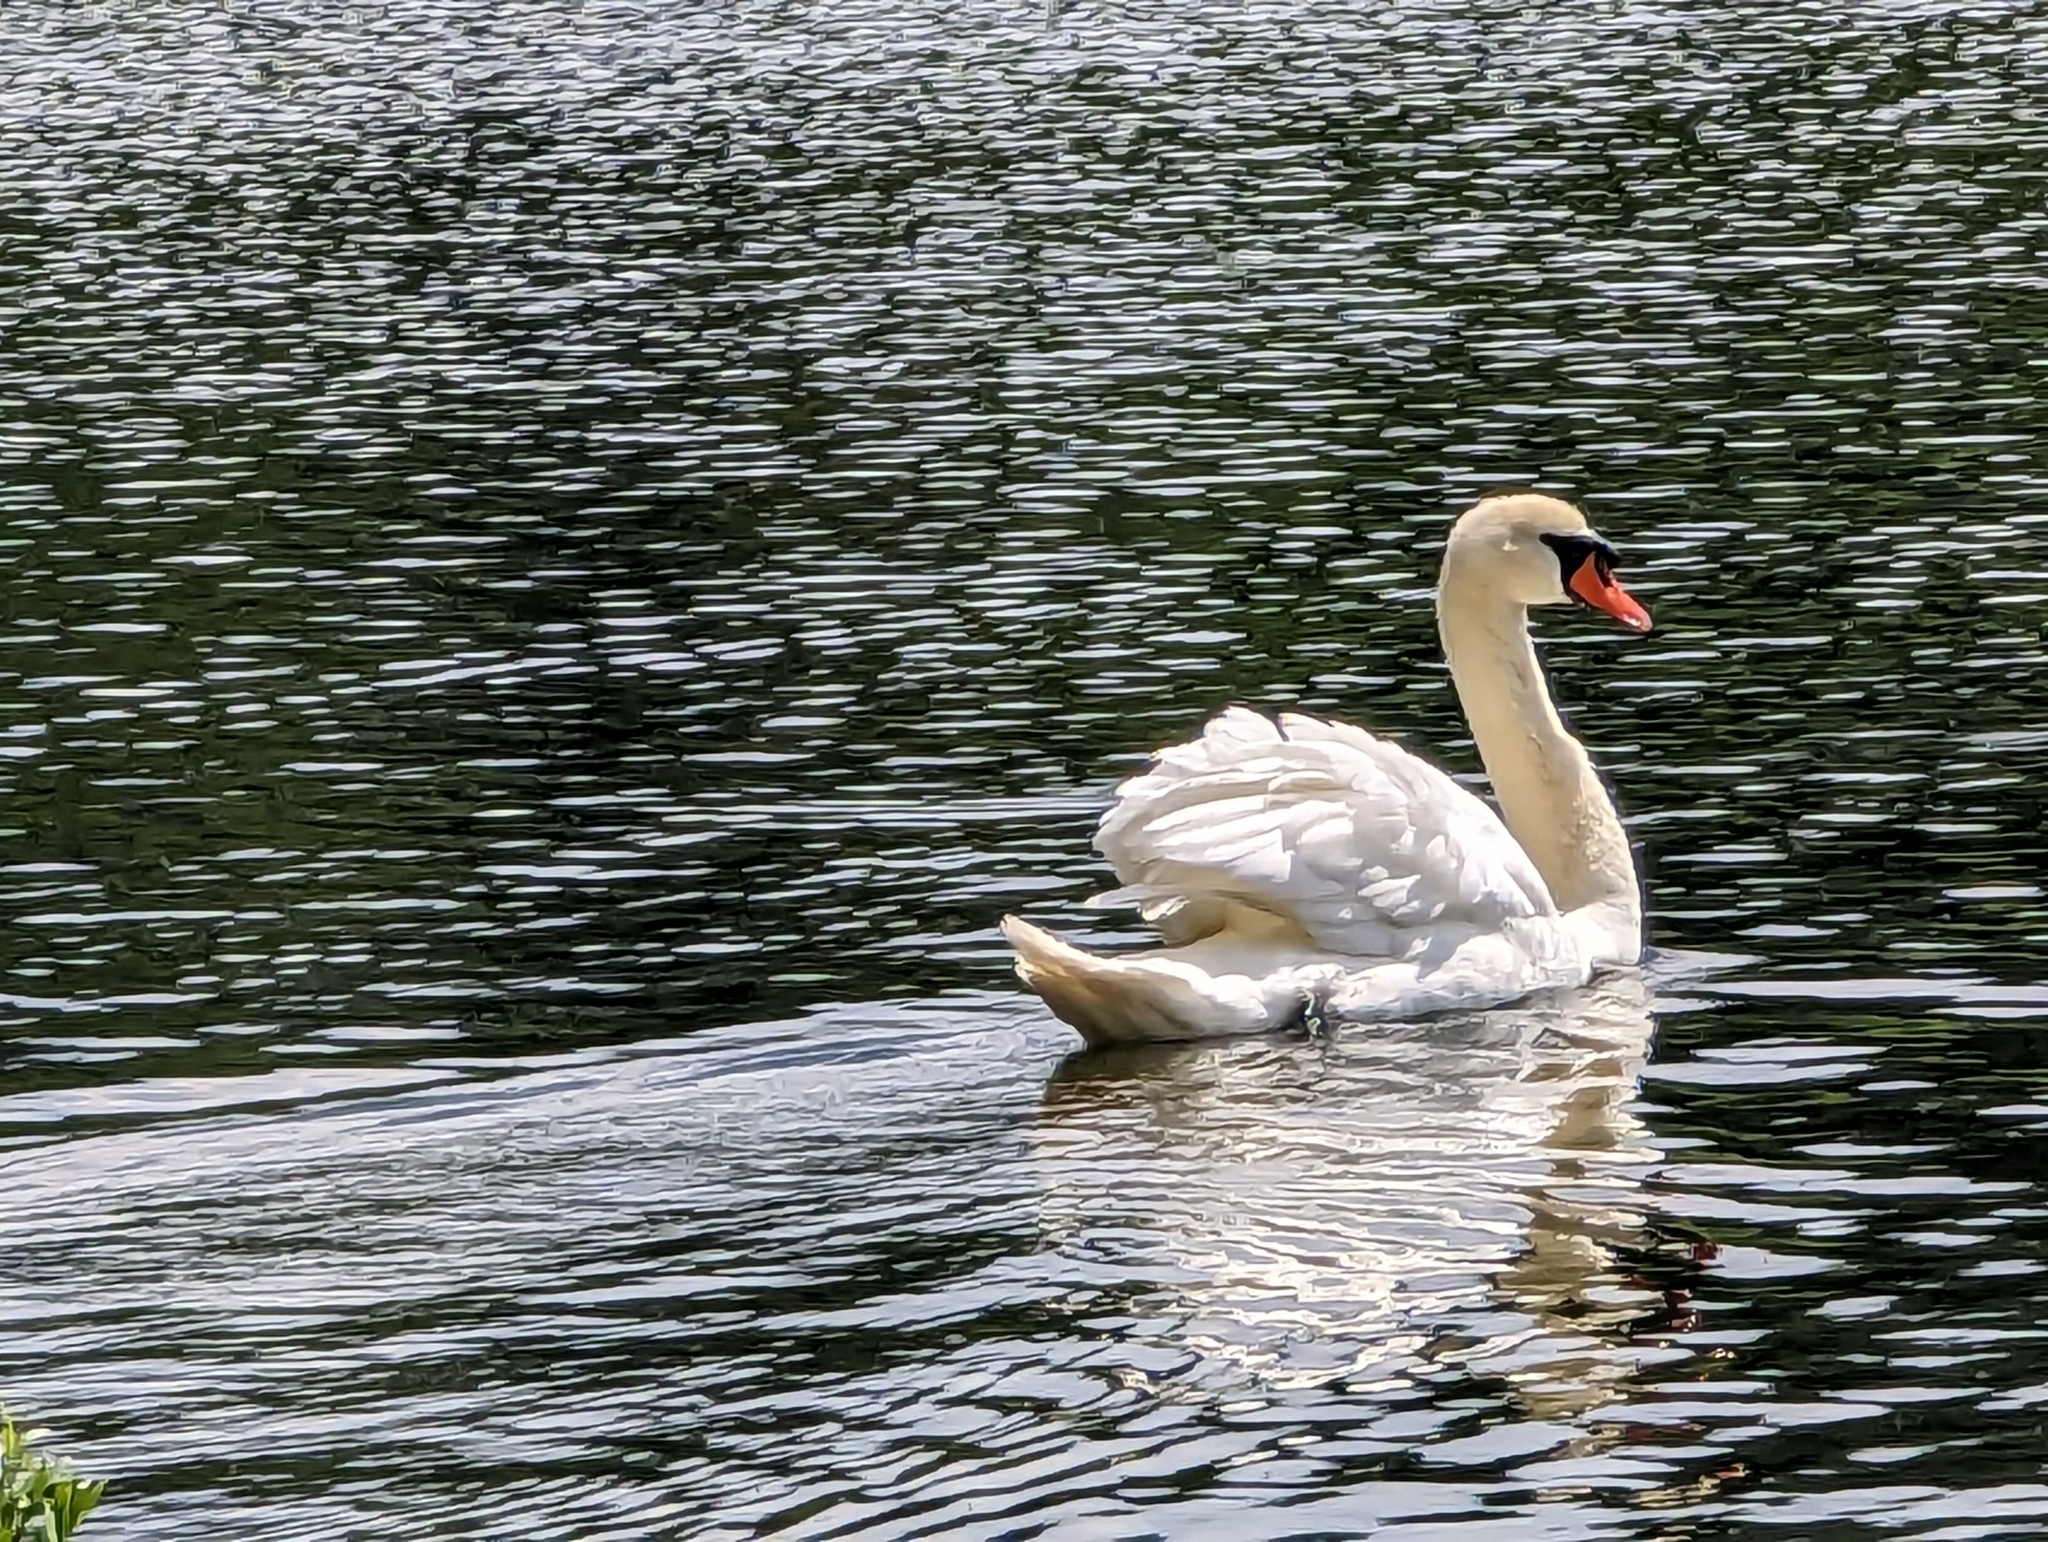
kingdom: Animalia
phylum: Chordata
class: Aves
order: Anseriformes
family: Anatidae
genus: Cygnus
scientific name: Cygnus olor
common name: Mute swan
